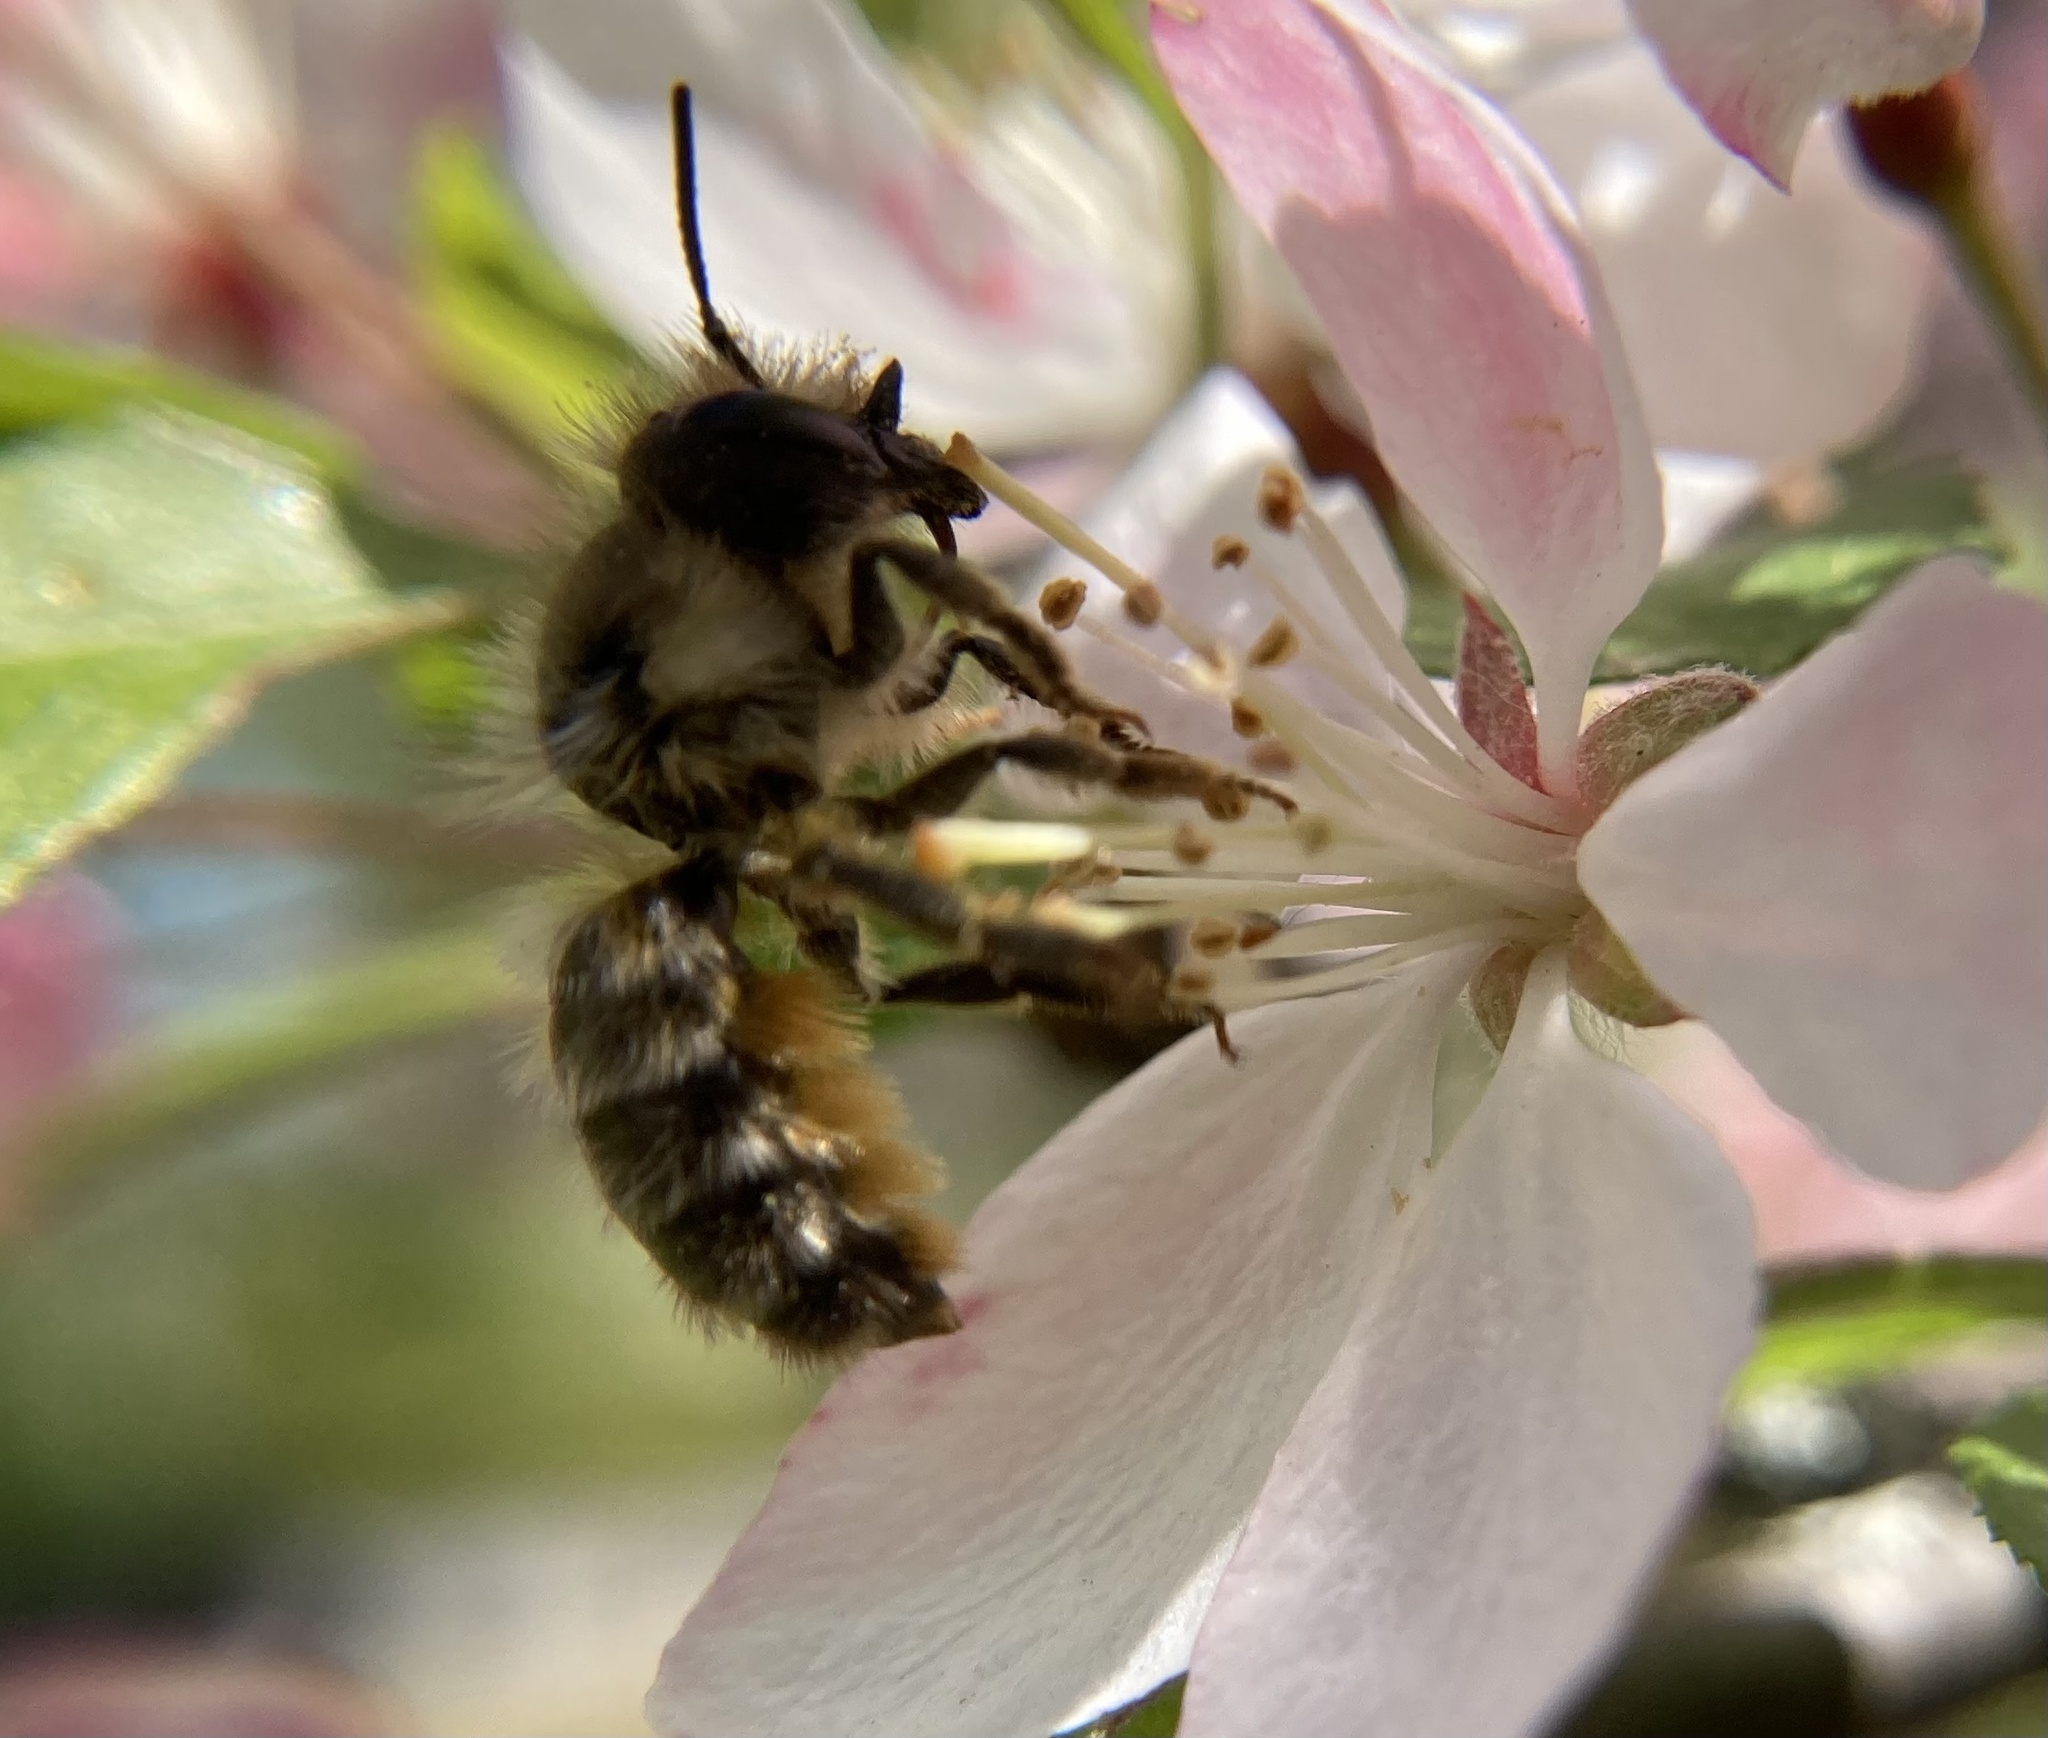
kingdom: Animalia
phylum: Arthropoda
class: Insecta
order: Hymenoptera
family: Megachilidae
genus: Osmia
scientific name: Osmia cornifrons
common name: Horn-faced bee
